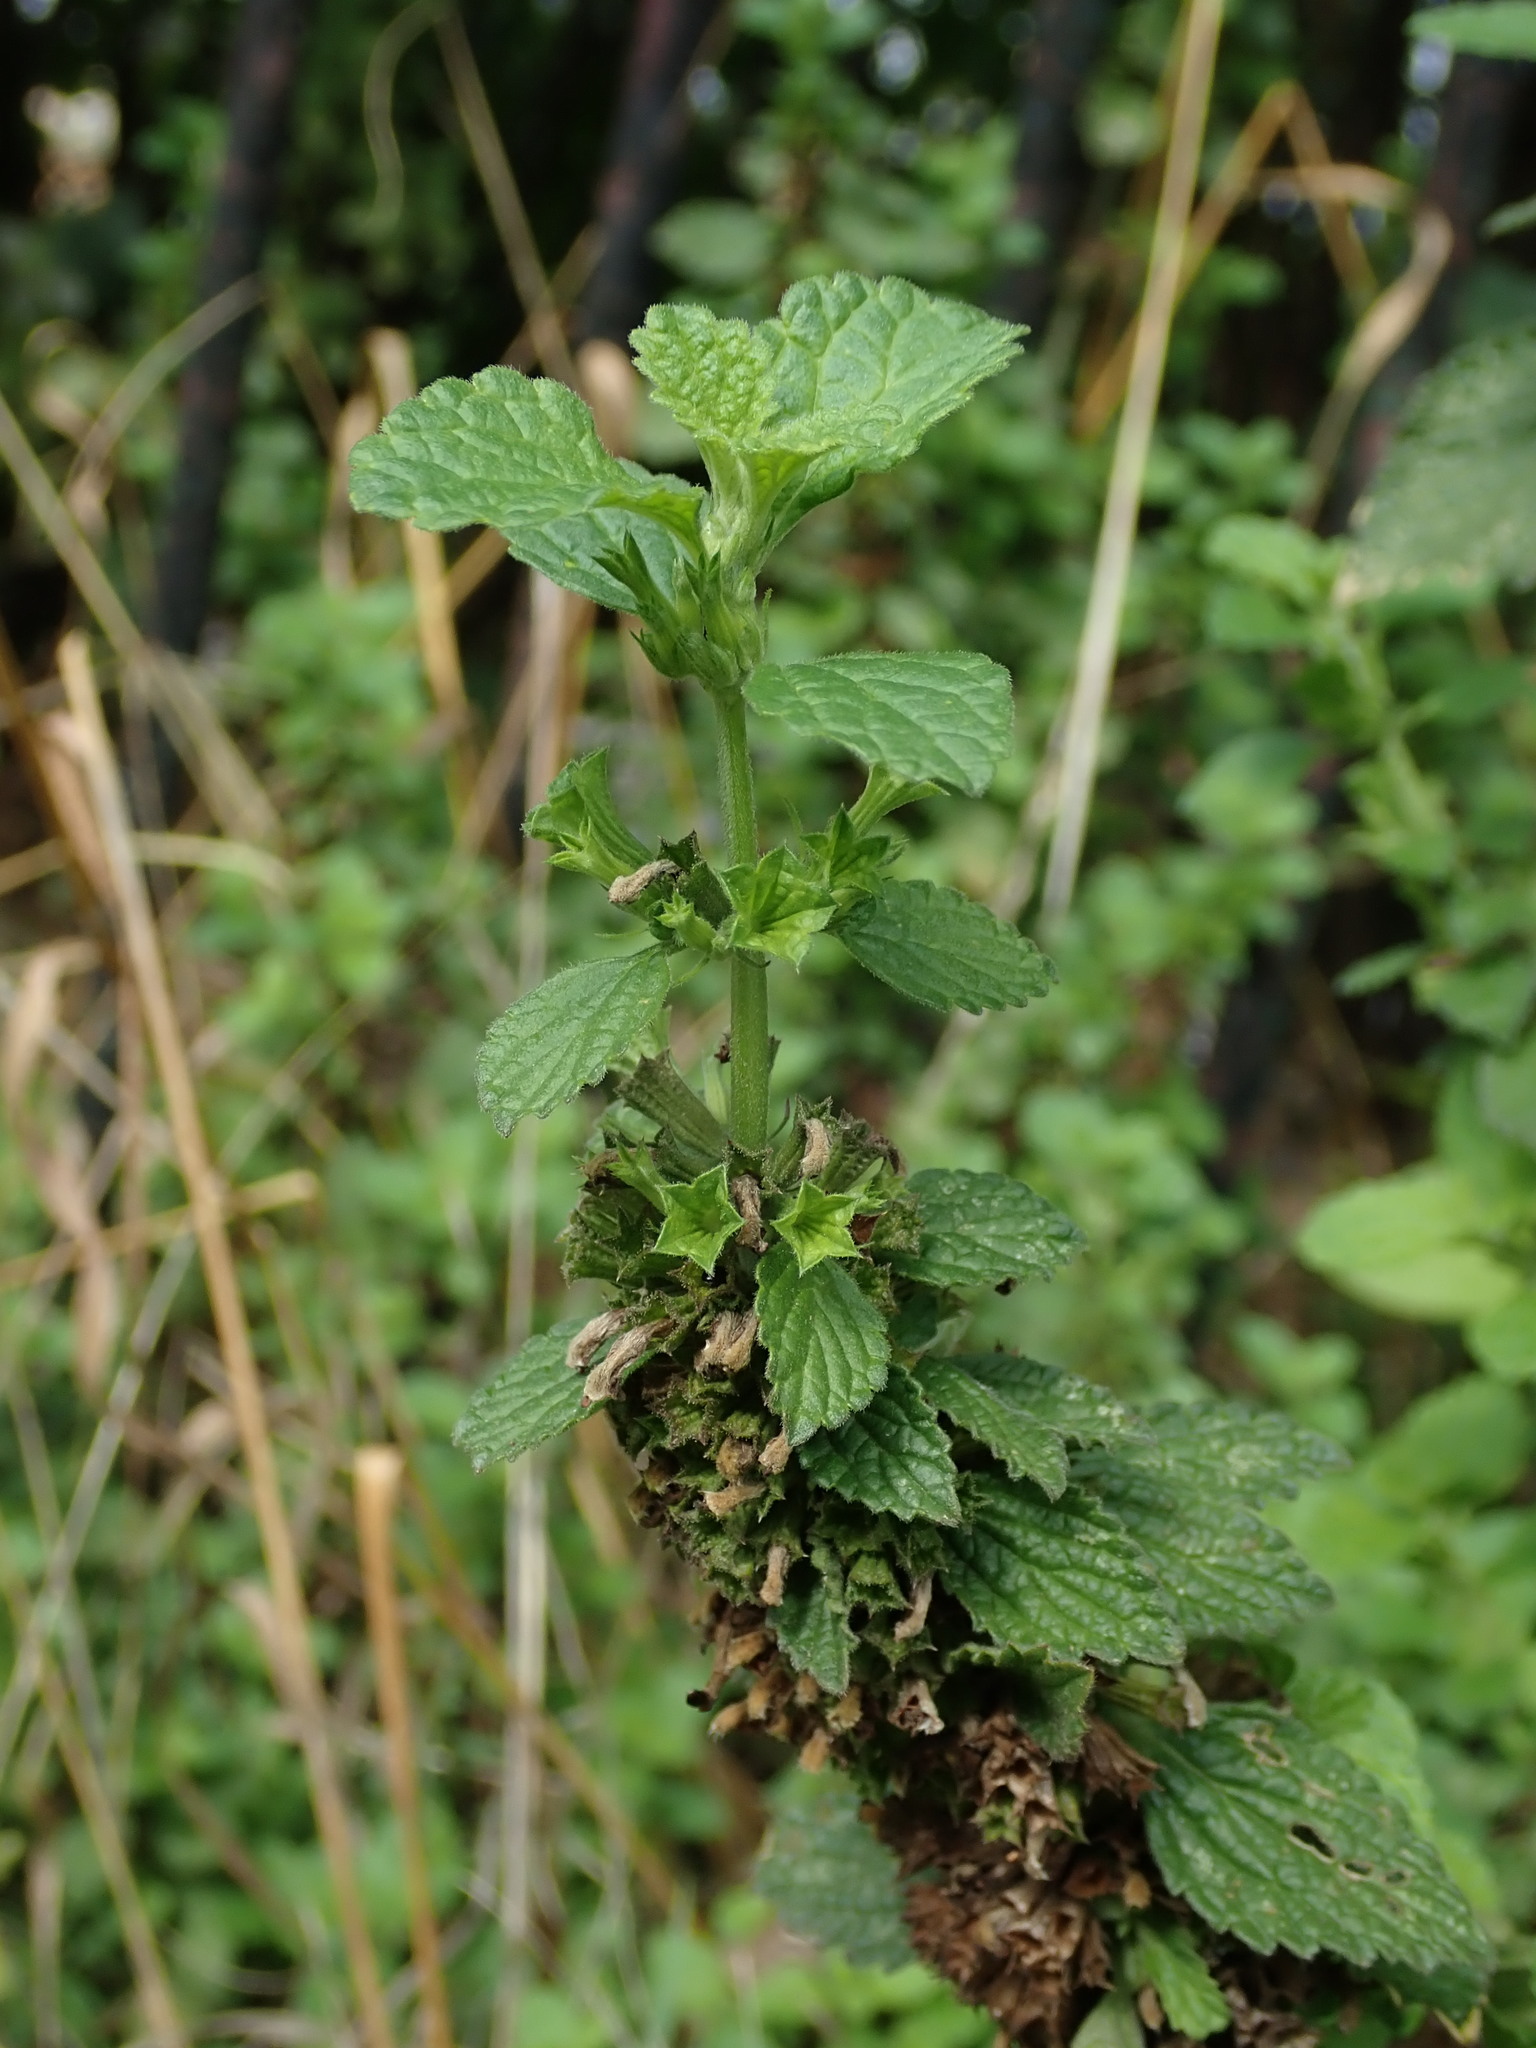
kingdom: Plantae
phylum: Tracheophyta
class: Magnoliopsida
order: Lamiales
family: Lamiaceae
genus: Ballota
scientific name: Ballota nigra
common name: Black horehound
